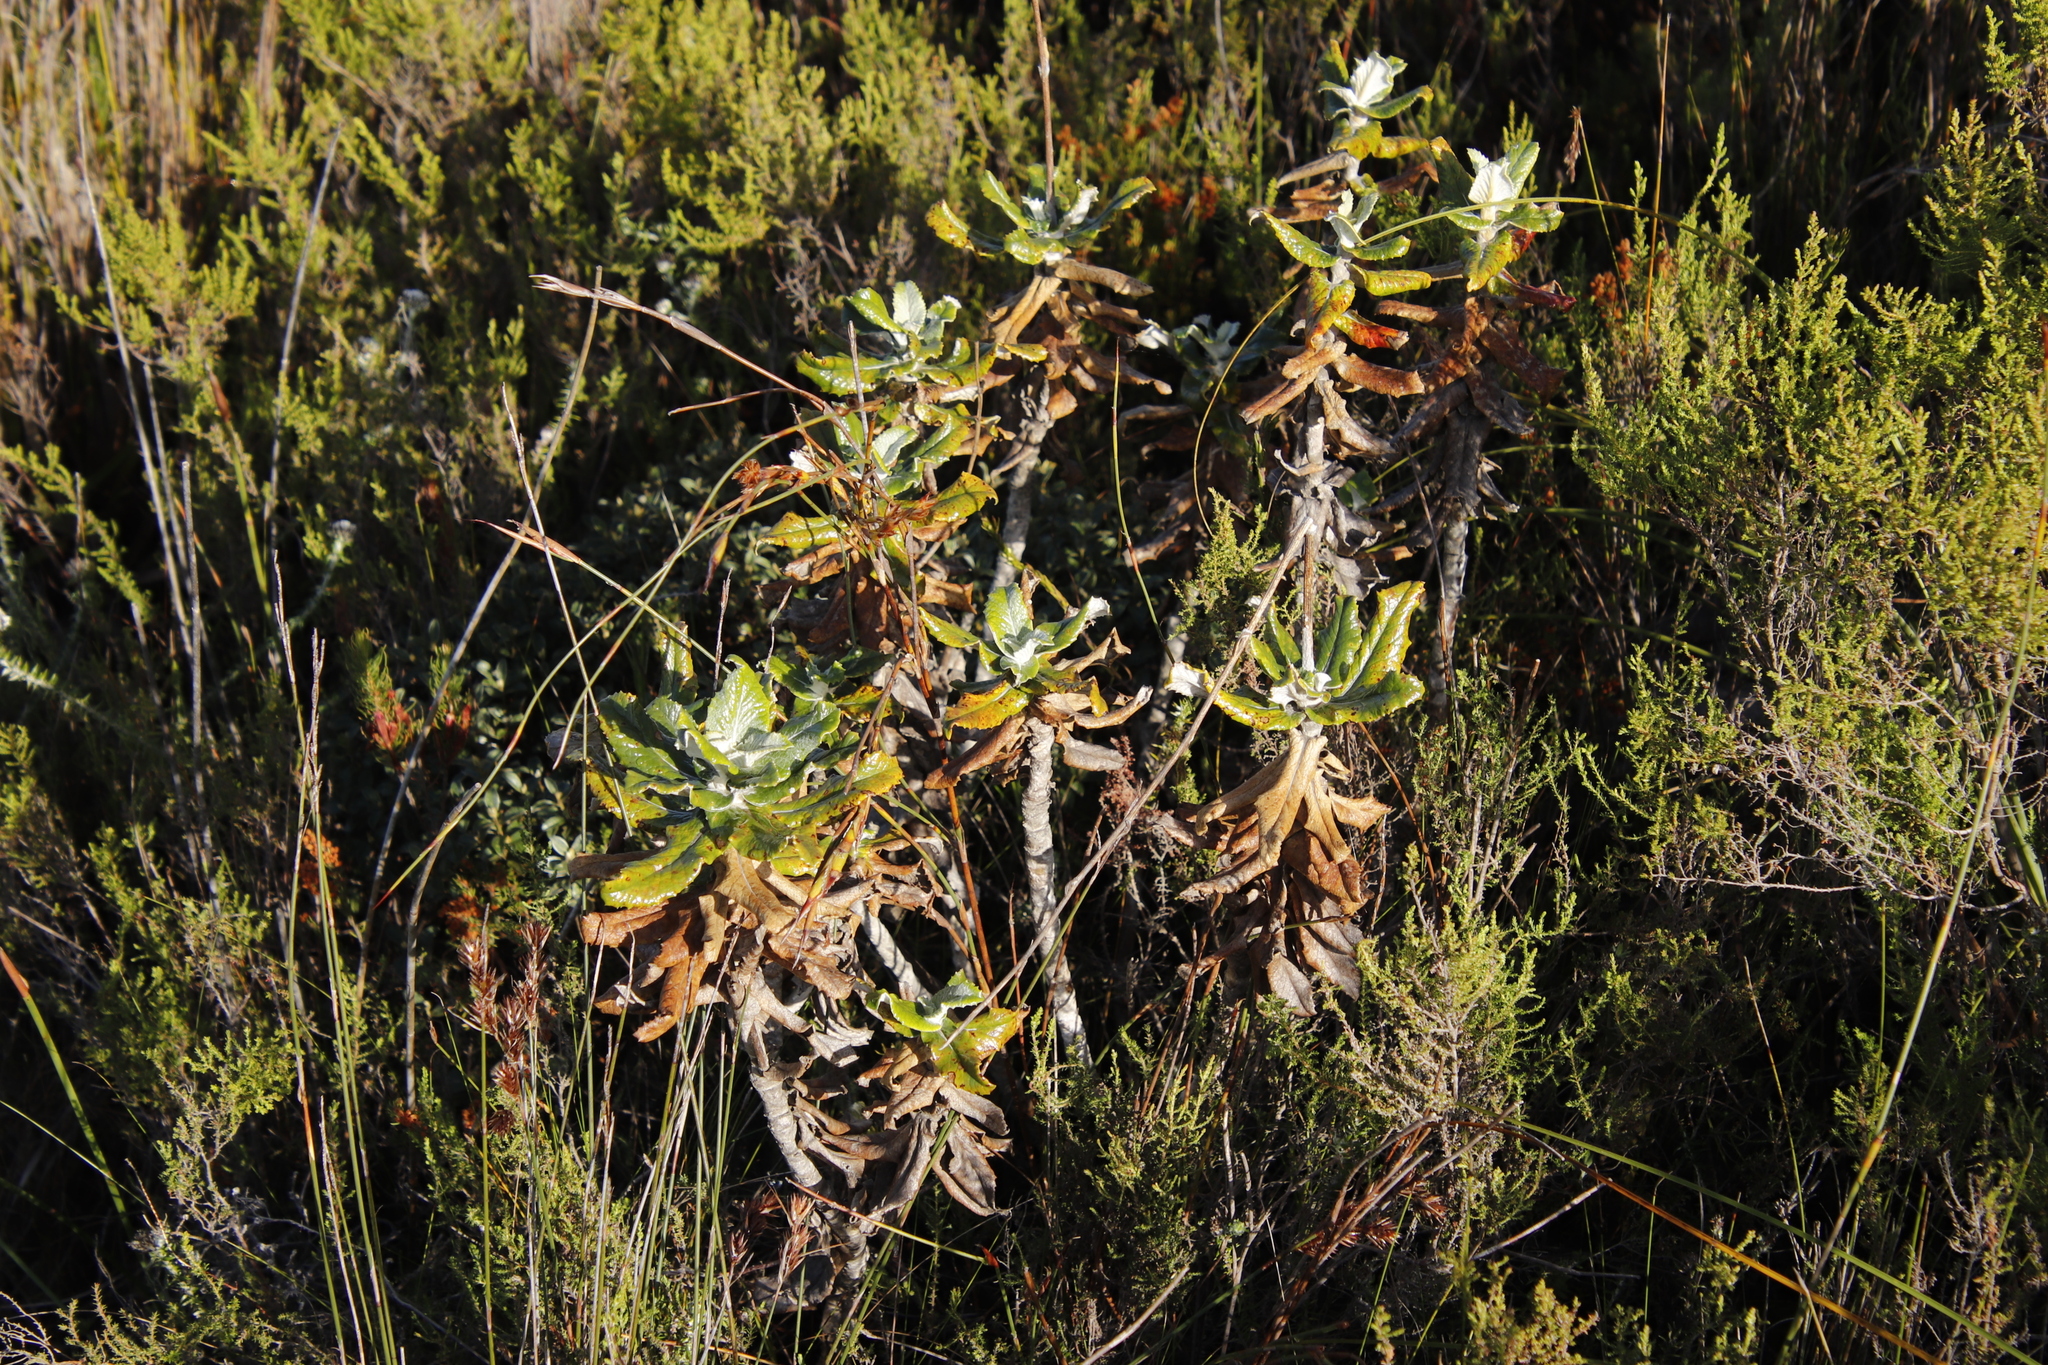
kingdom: Plantae
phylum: Tracheophyta
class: Magnoliopsida
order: Apiales
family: Apiaceae
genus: Hermas
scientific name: Hermas villosa
